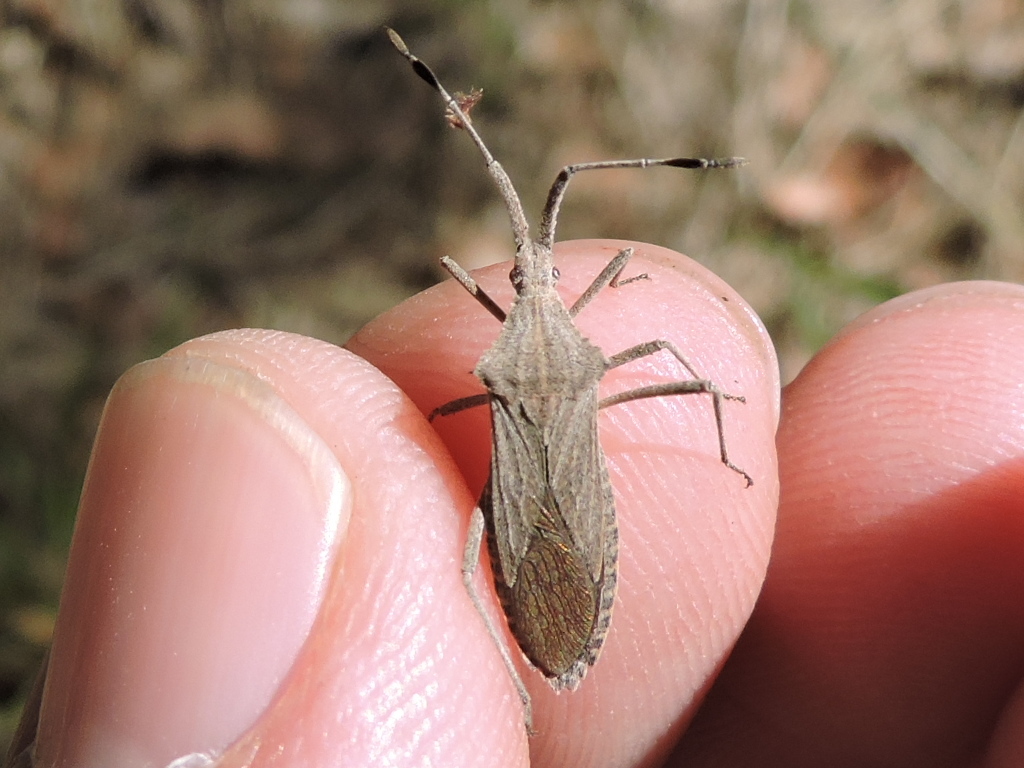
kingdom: Animalia
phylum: Arthropoda
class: Insecta
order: Hemiptera
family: Coreidae
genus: Chariesterus
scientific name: Chariesterus antennator
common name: Flat horned coreid
